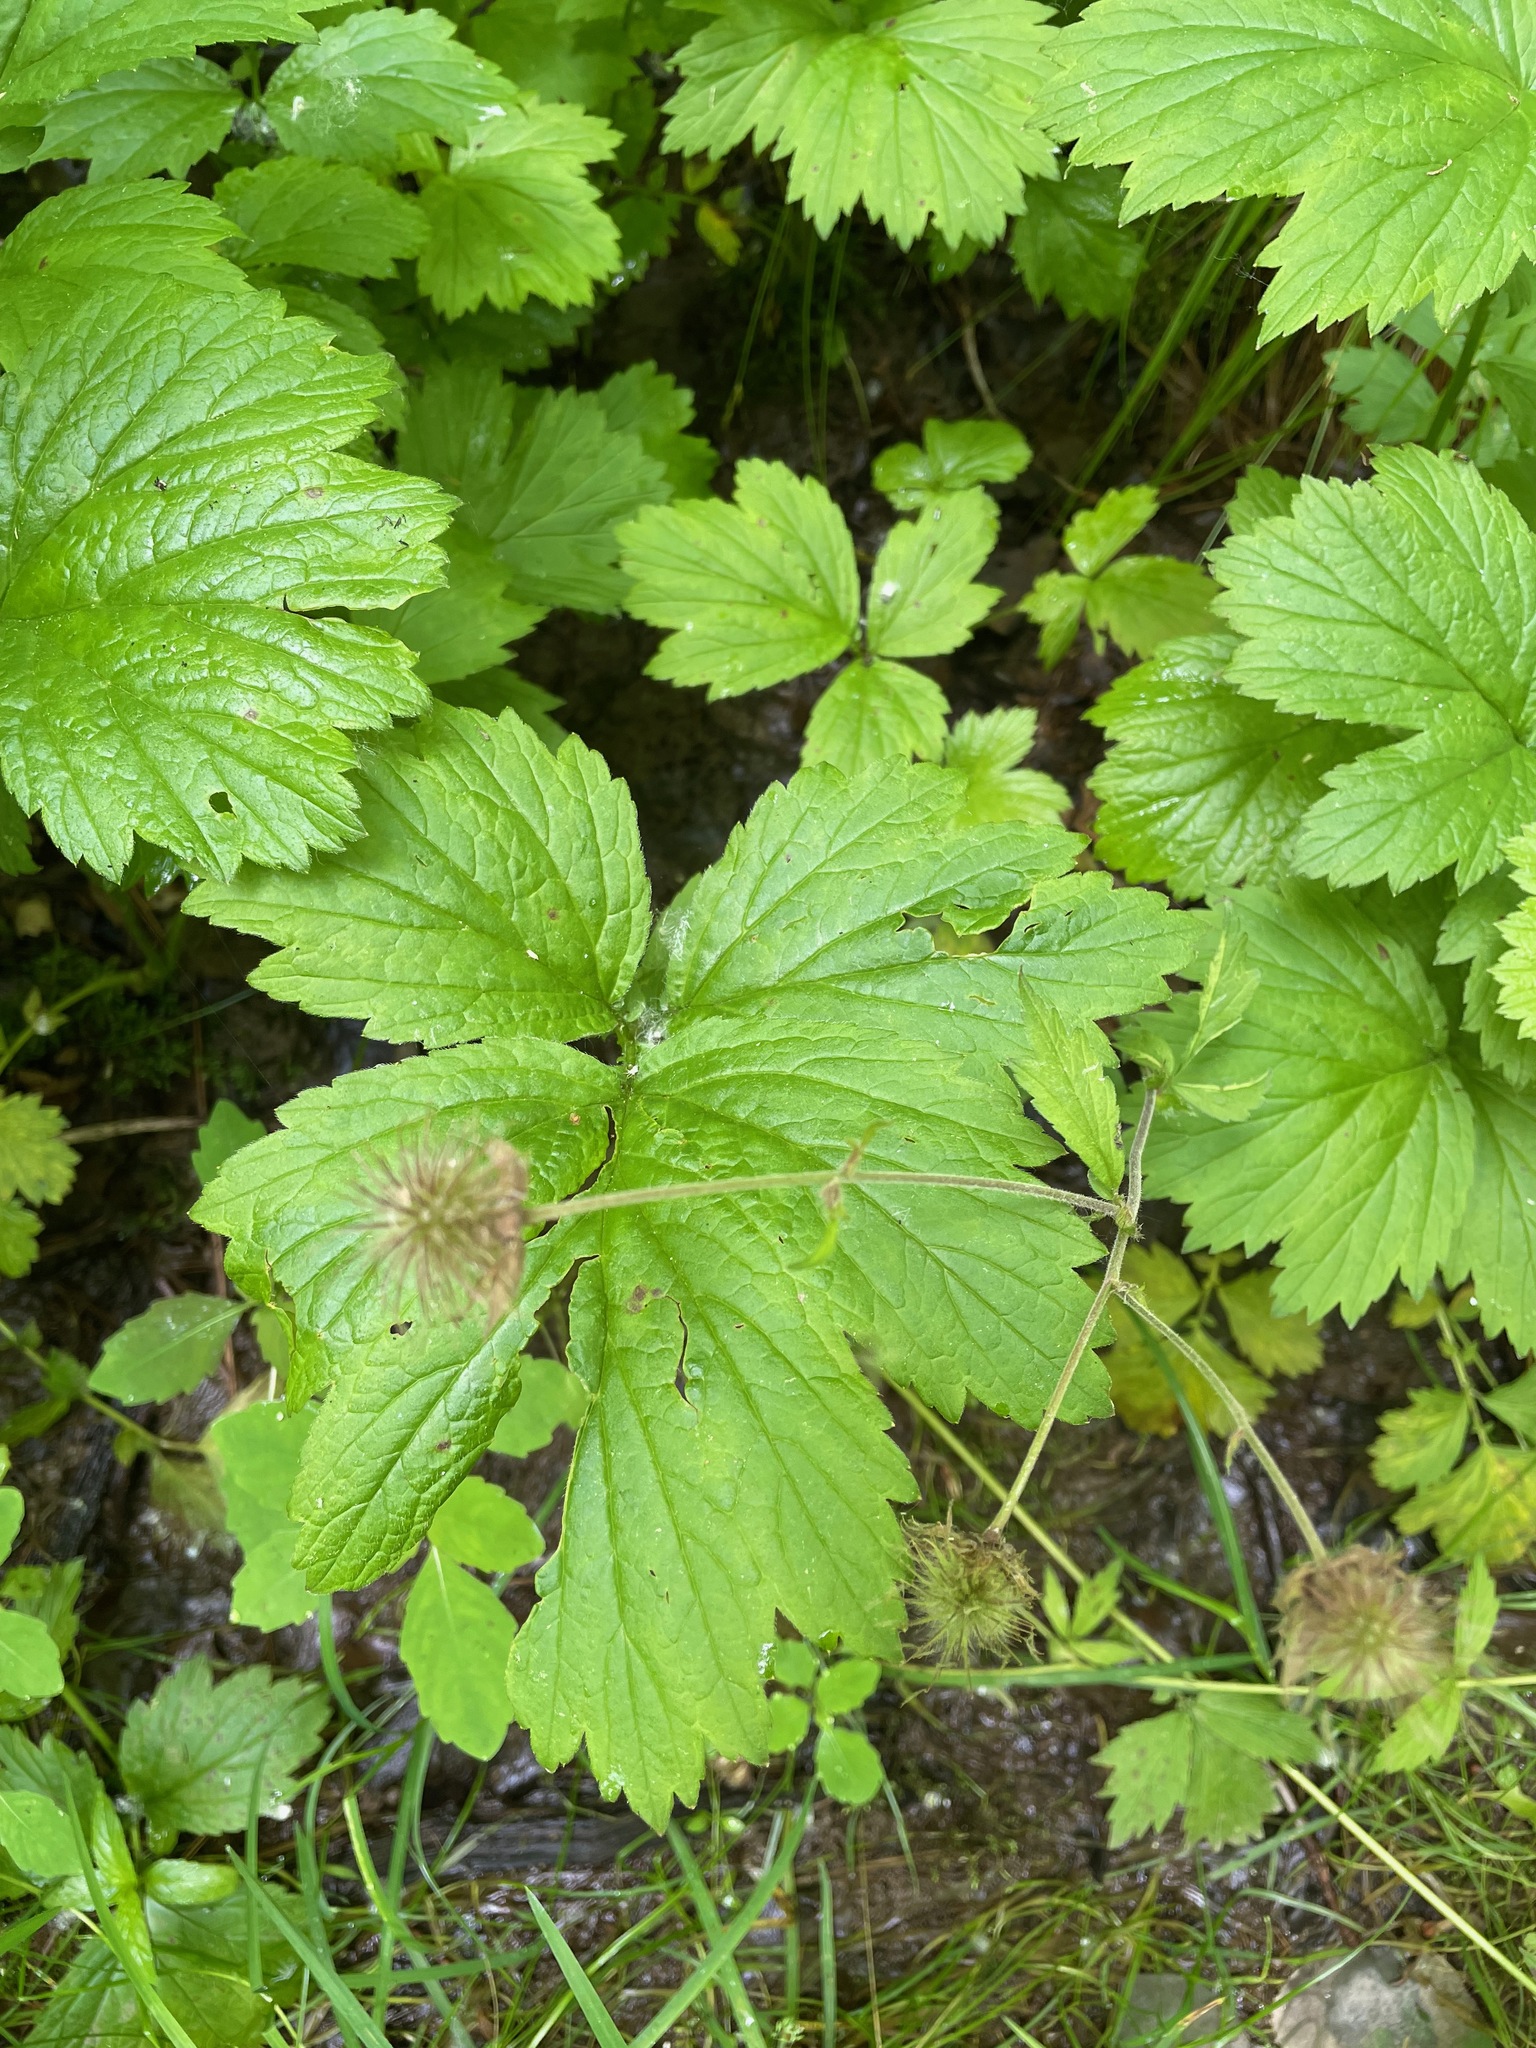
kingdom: Plantae
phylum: Tracheophyta
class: Magnoliopsida
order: Rosales
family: Rosaceae
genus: Geum
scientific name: Geum rivale
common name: Water avens
